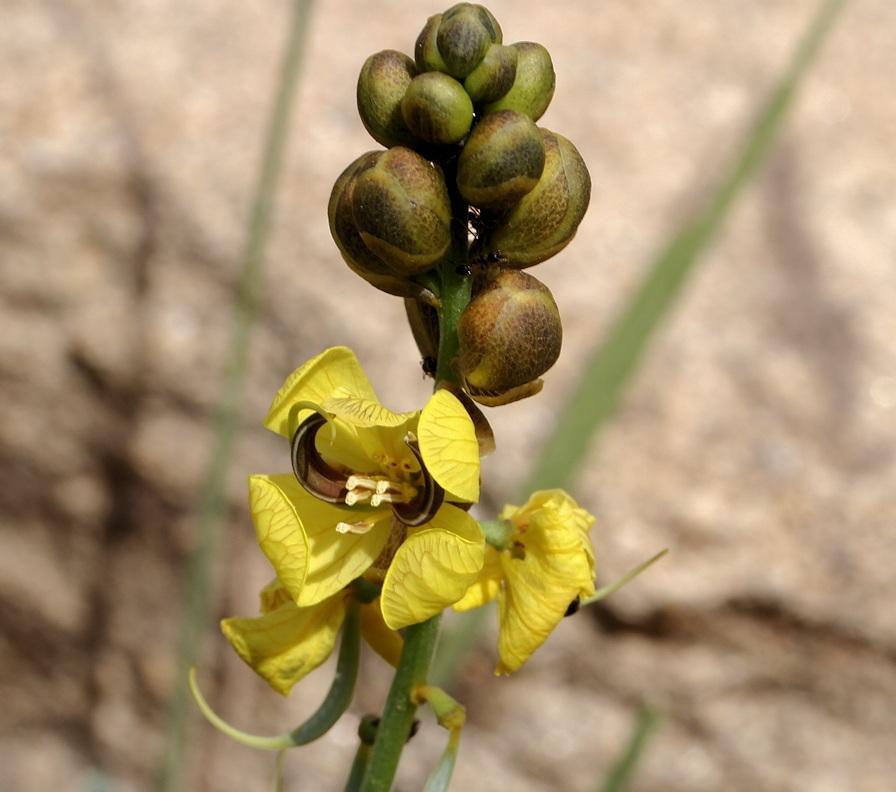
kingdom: Plantae
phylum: Tracheophyta
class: Magnoliopsida
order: Fabales
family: Fabaceae
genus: Senna
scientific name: Senna italica
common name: Port royal senna
